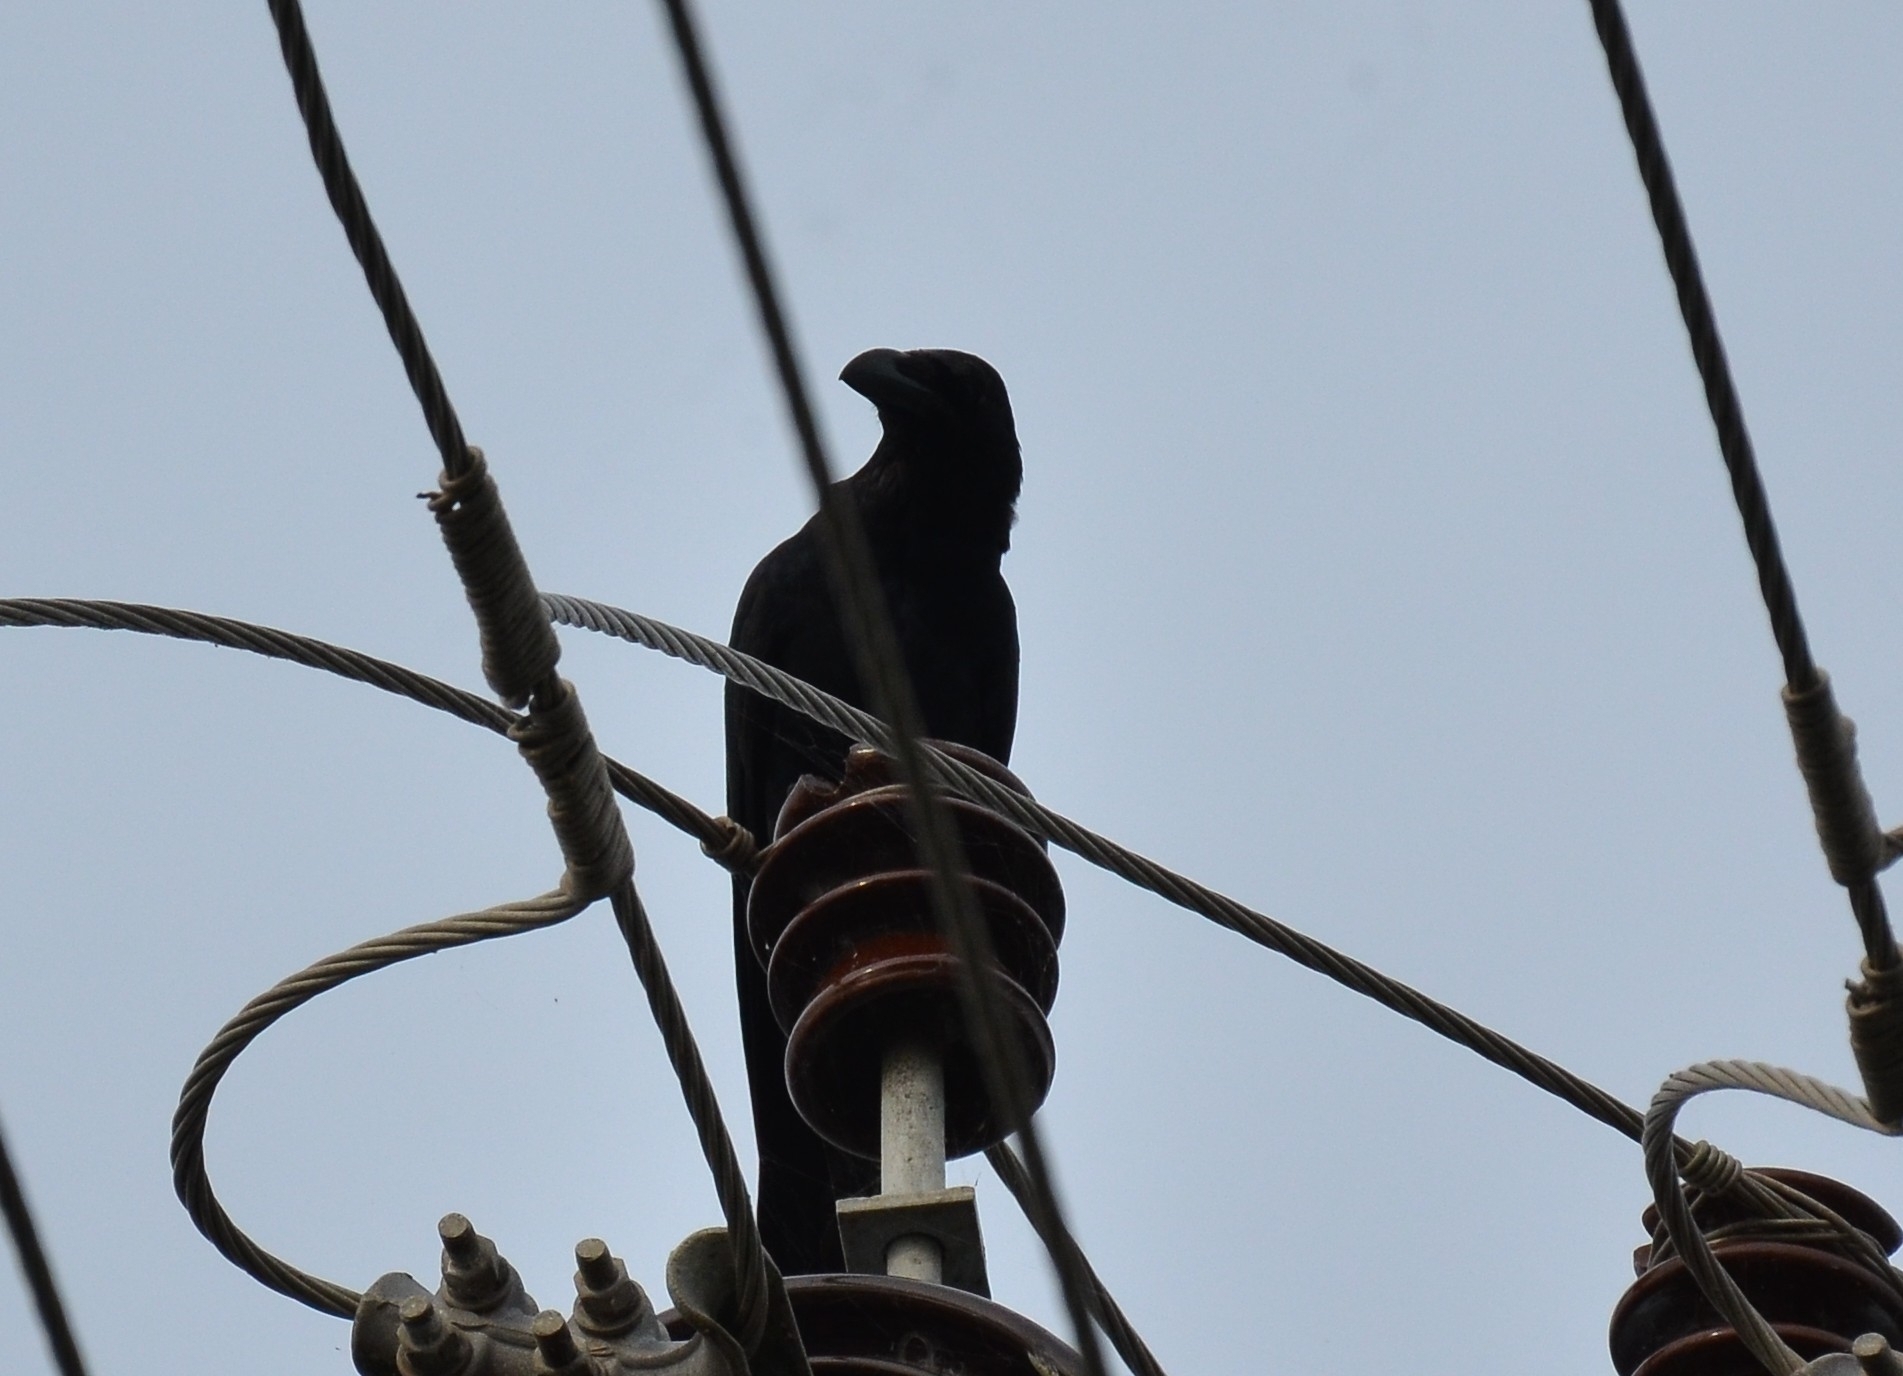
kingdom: Animalia
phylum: Chordata
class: Aves
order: Passeriformes
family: Corvidae
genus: Corvus
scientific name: Corvus macrorhynchos
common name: Large-billed crow
